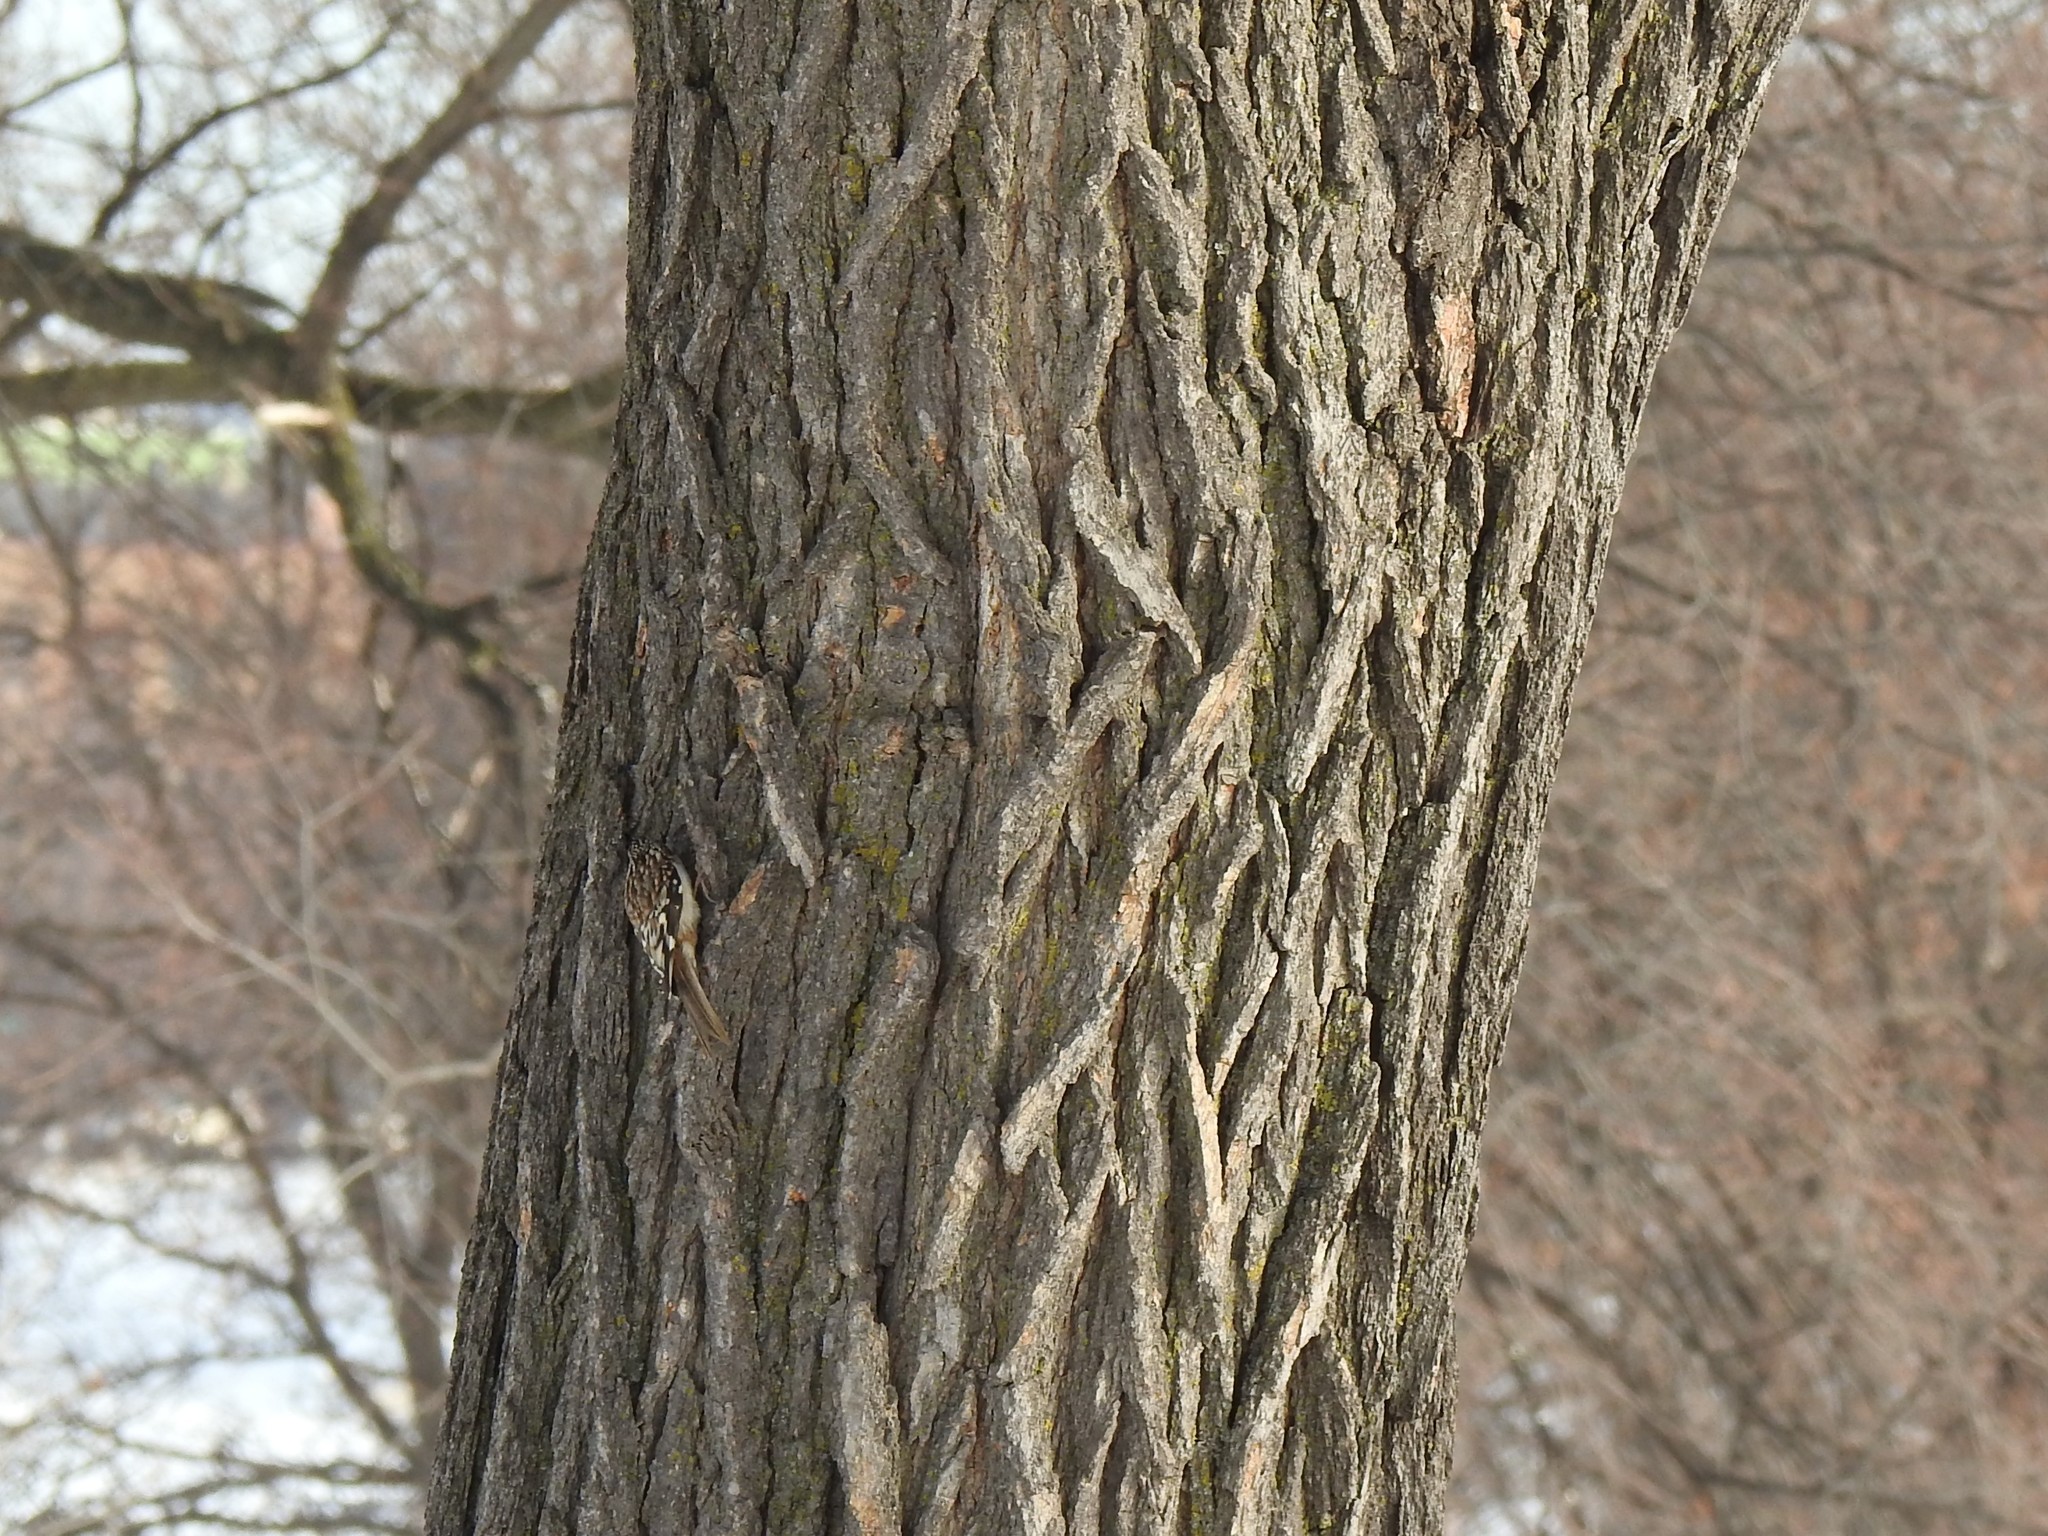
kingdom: Animalia
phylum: Chordata
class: Aves
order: Passeriformes
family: Certhiidae
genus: Certhia
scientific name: Certhia americana
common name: Brown creeper
